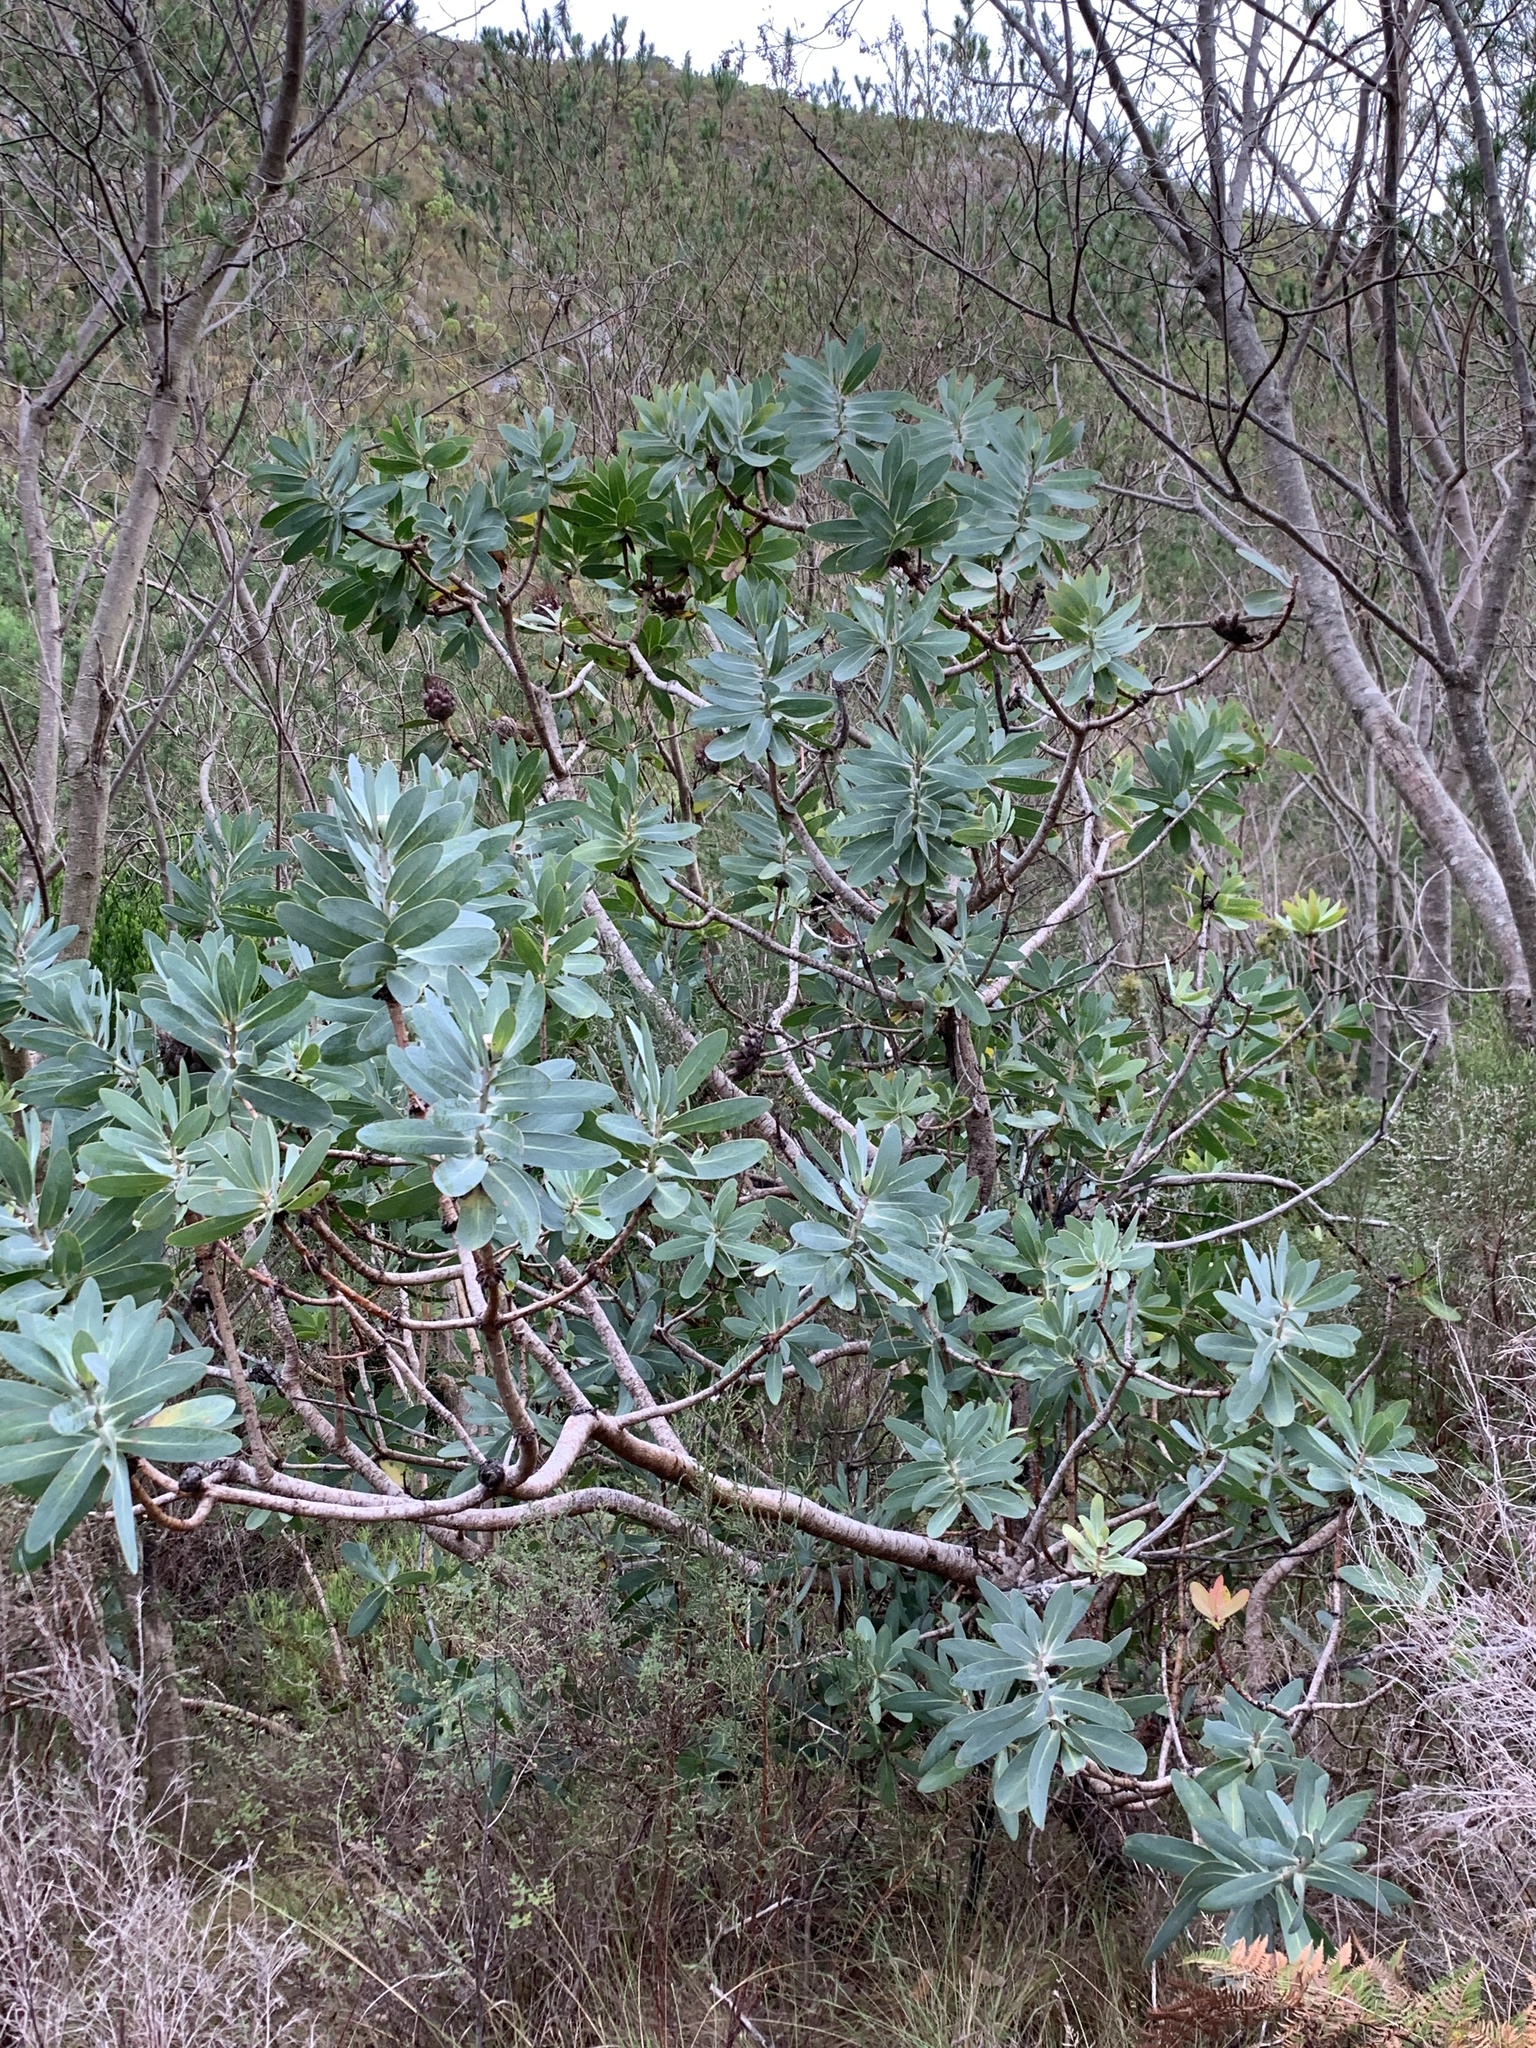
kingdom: Plantae
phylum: Tracheophyta
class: Magnoliopsida
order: Proteales
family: Proteaceae
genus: Protea
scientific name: Protea nitida
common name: Tree protea
